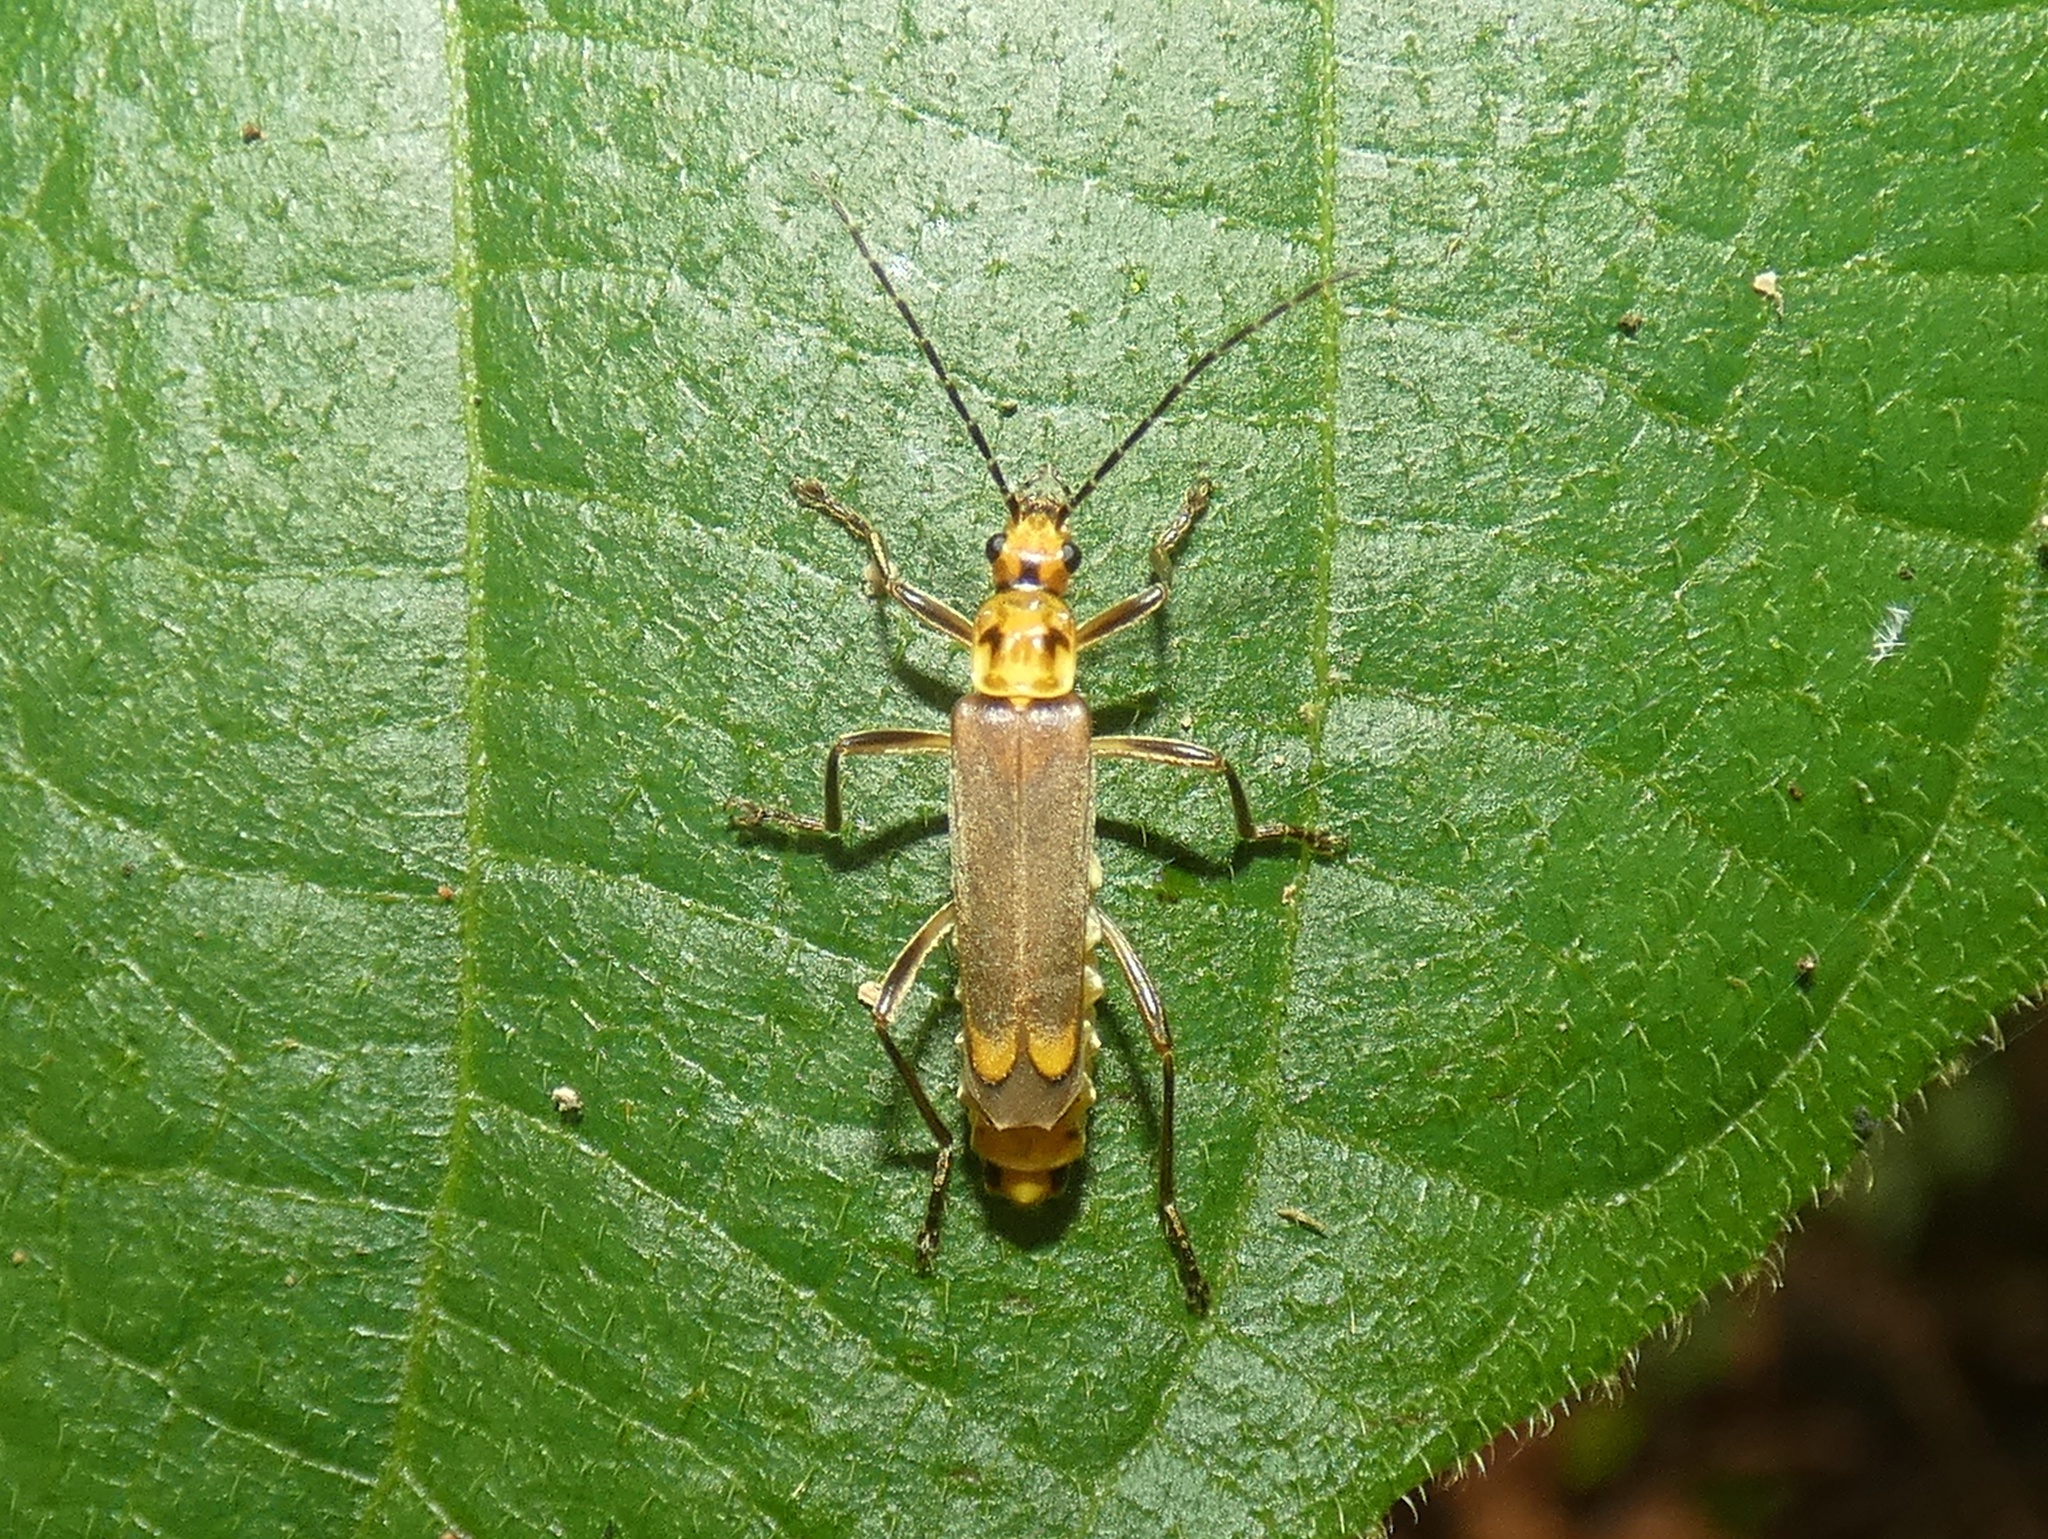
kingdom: Animalia
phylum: Arthropoda
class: Insecta
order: Coleoptera
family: Cantharidae
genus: Chauliognathus
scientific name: Chauliognathus
